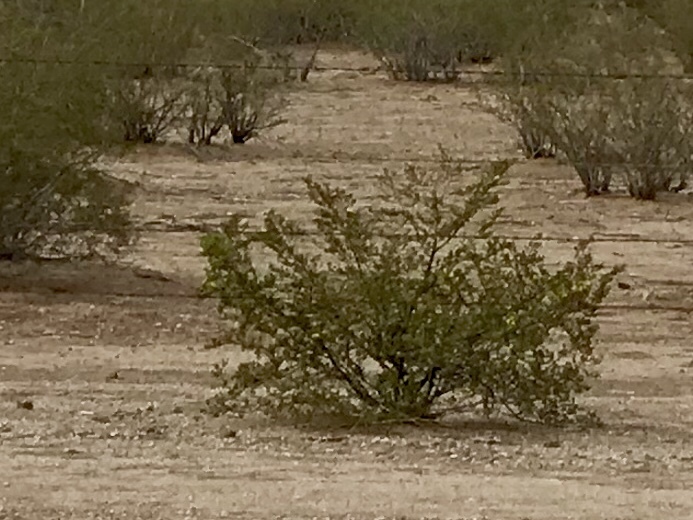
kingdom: Plantae
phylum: Tracheophyta
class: Magnoliopsida
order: Zygophyllales
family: Zygophyllaceae
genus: Larrea
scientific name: Larrea tridentata
